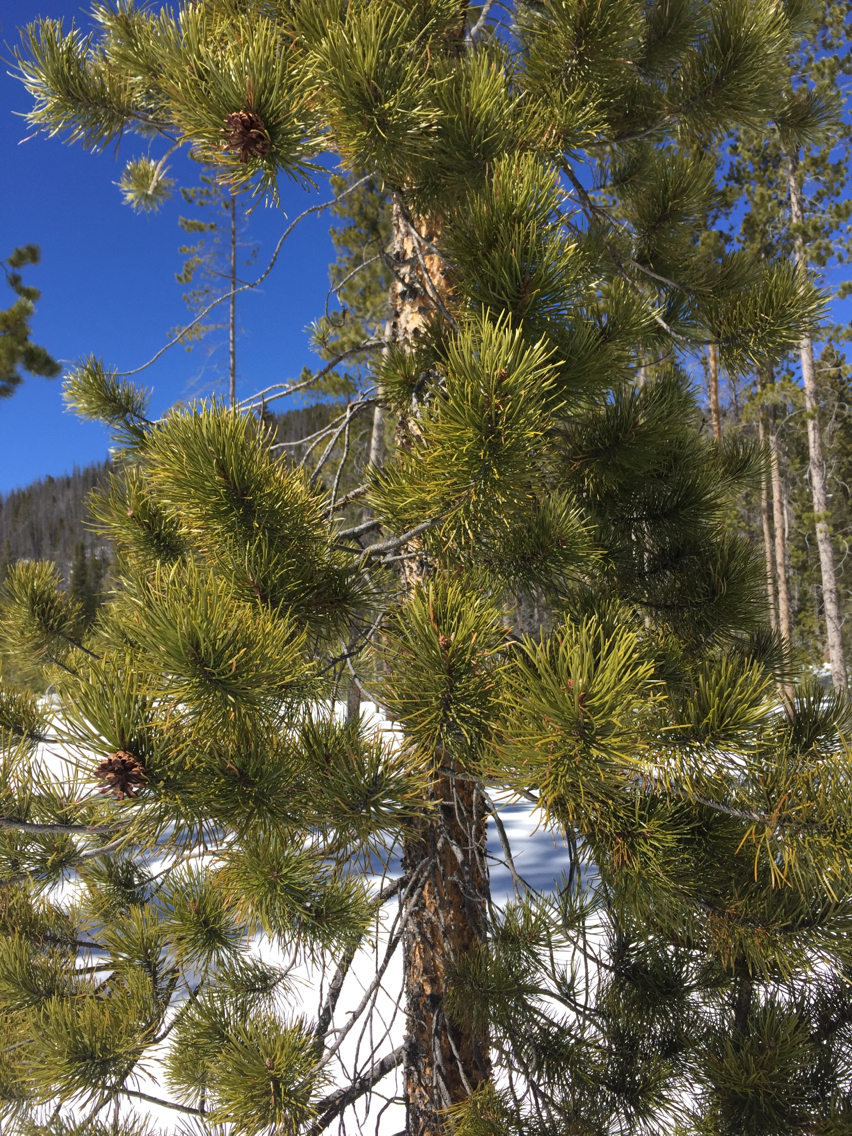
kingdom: Plantae
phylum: Tracheophyta
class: Pinopsida
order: Pinales
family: Pinaceae
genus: Pinus
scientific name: Pinus contorta
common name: Lodgepole pine
